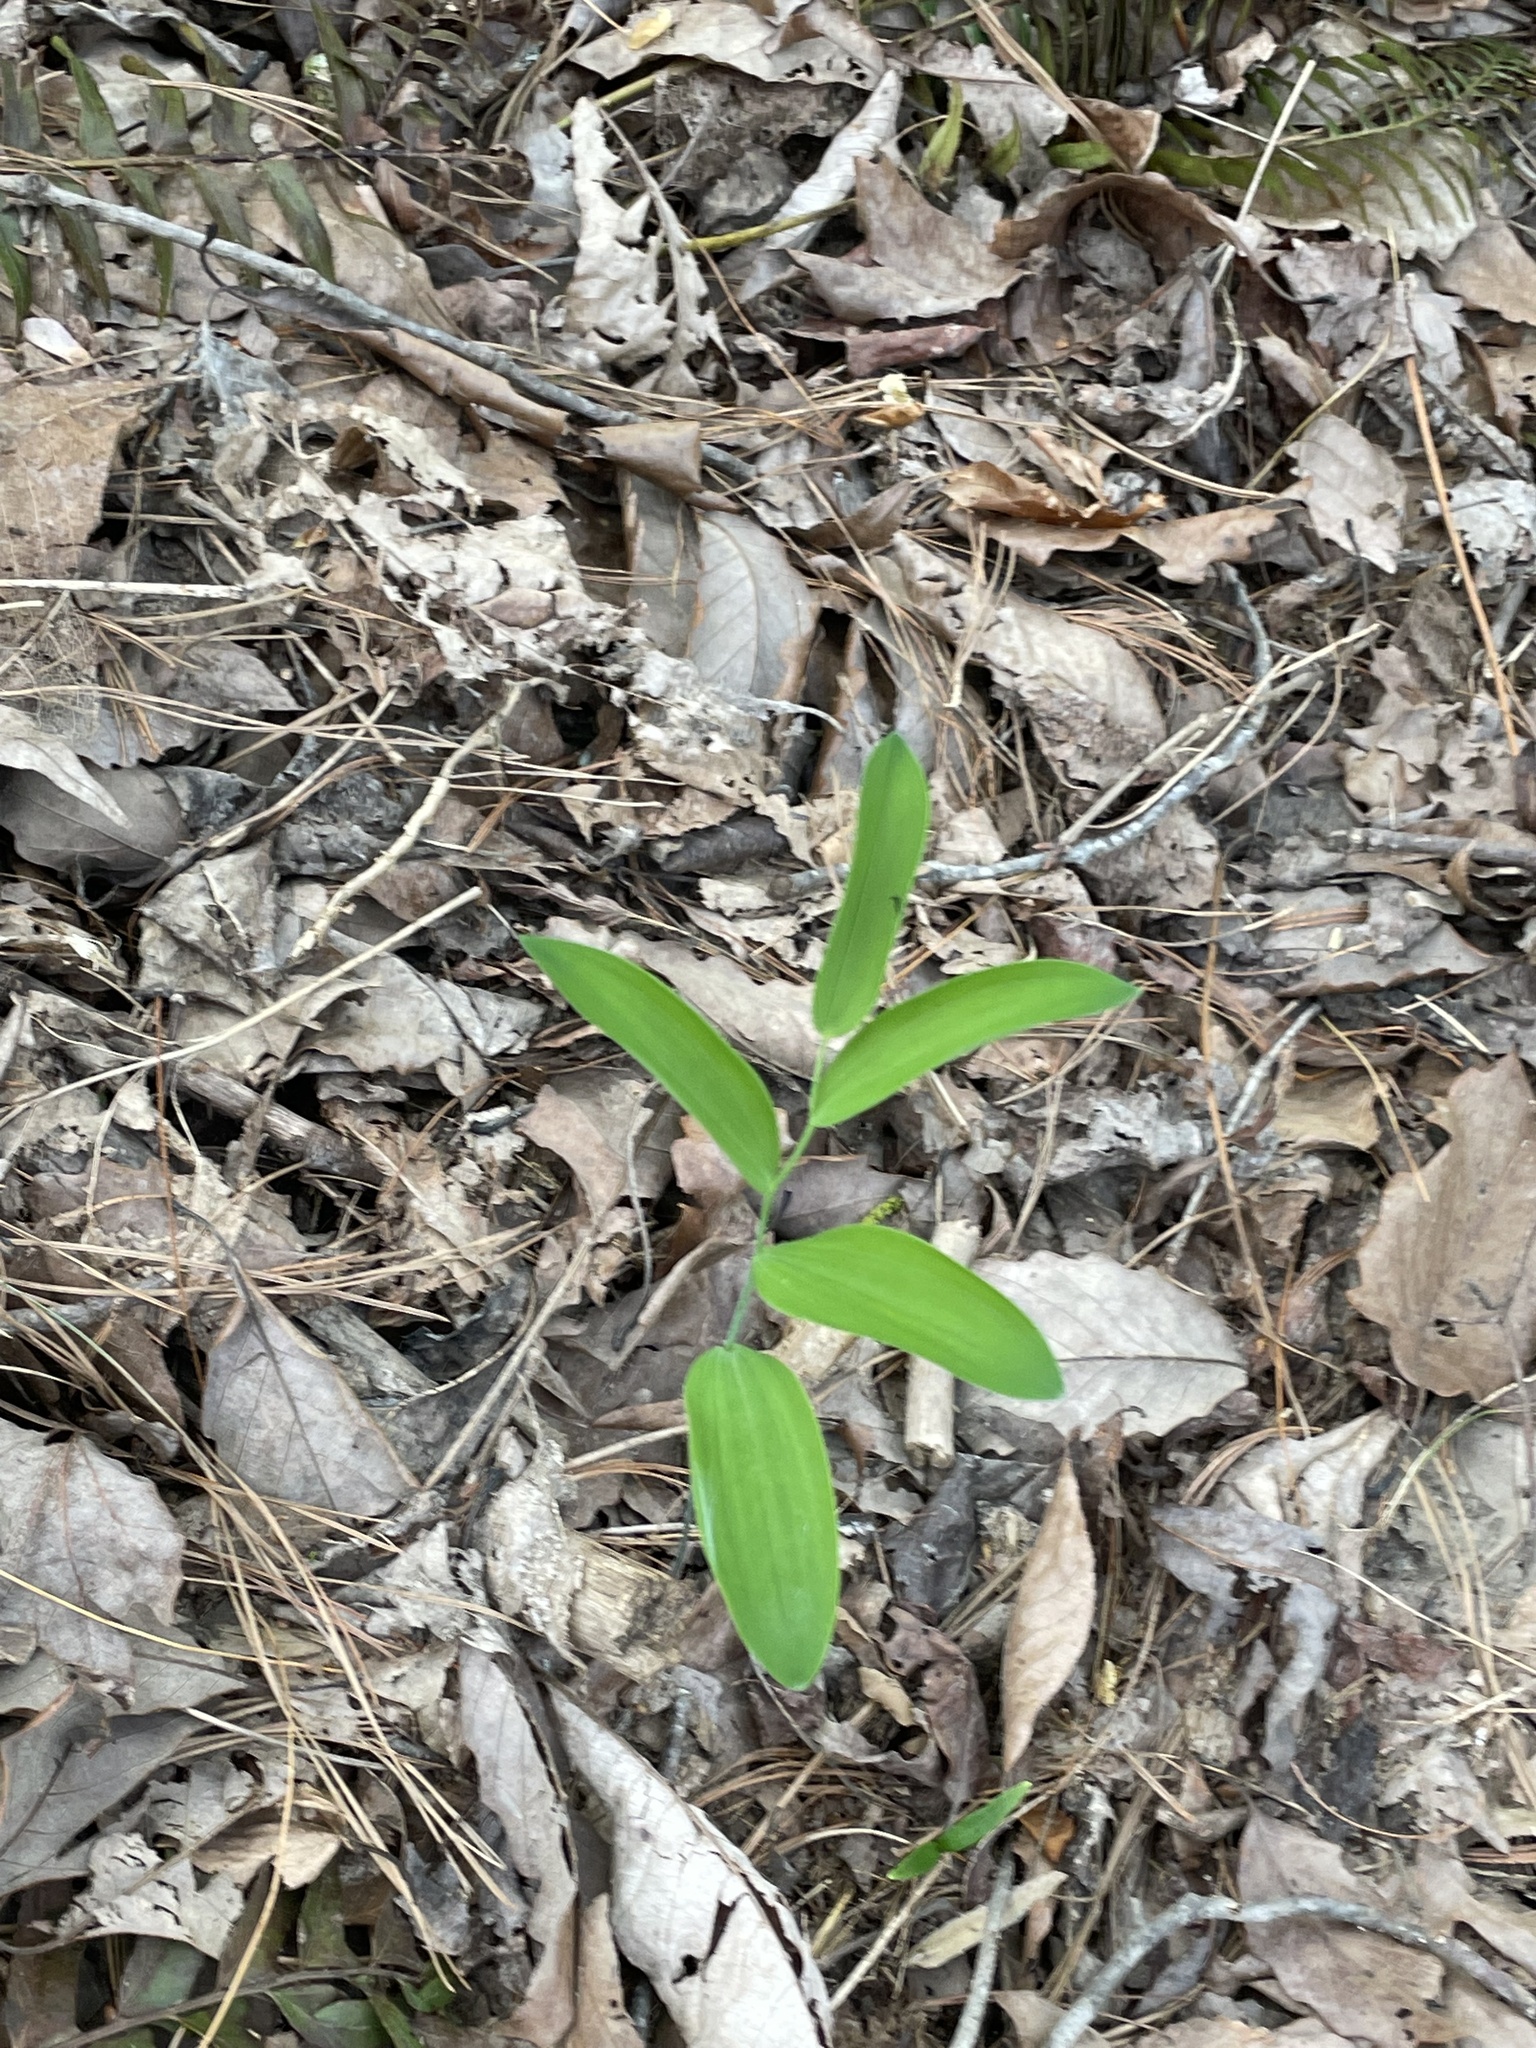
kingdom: Plantae
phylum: Tracheophyta
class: Liliopsida
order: Asparagales
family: Asparagaceae
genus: Polygonatum
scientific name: Polygonatum biflorum
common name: American solomon's-seal
